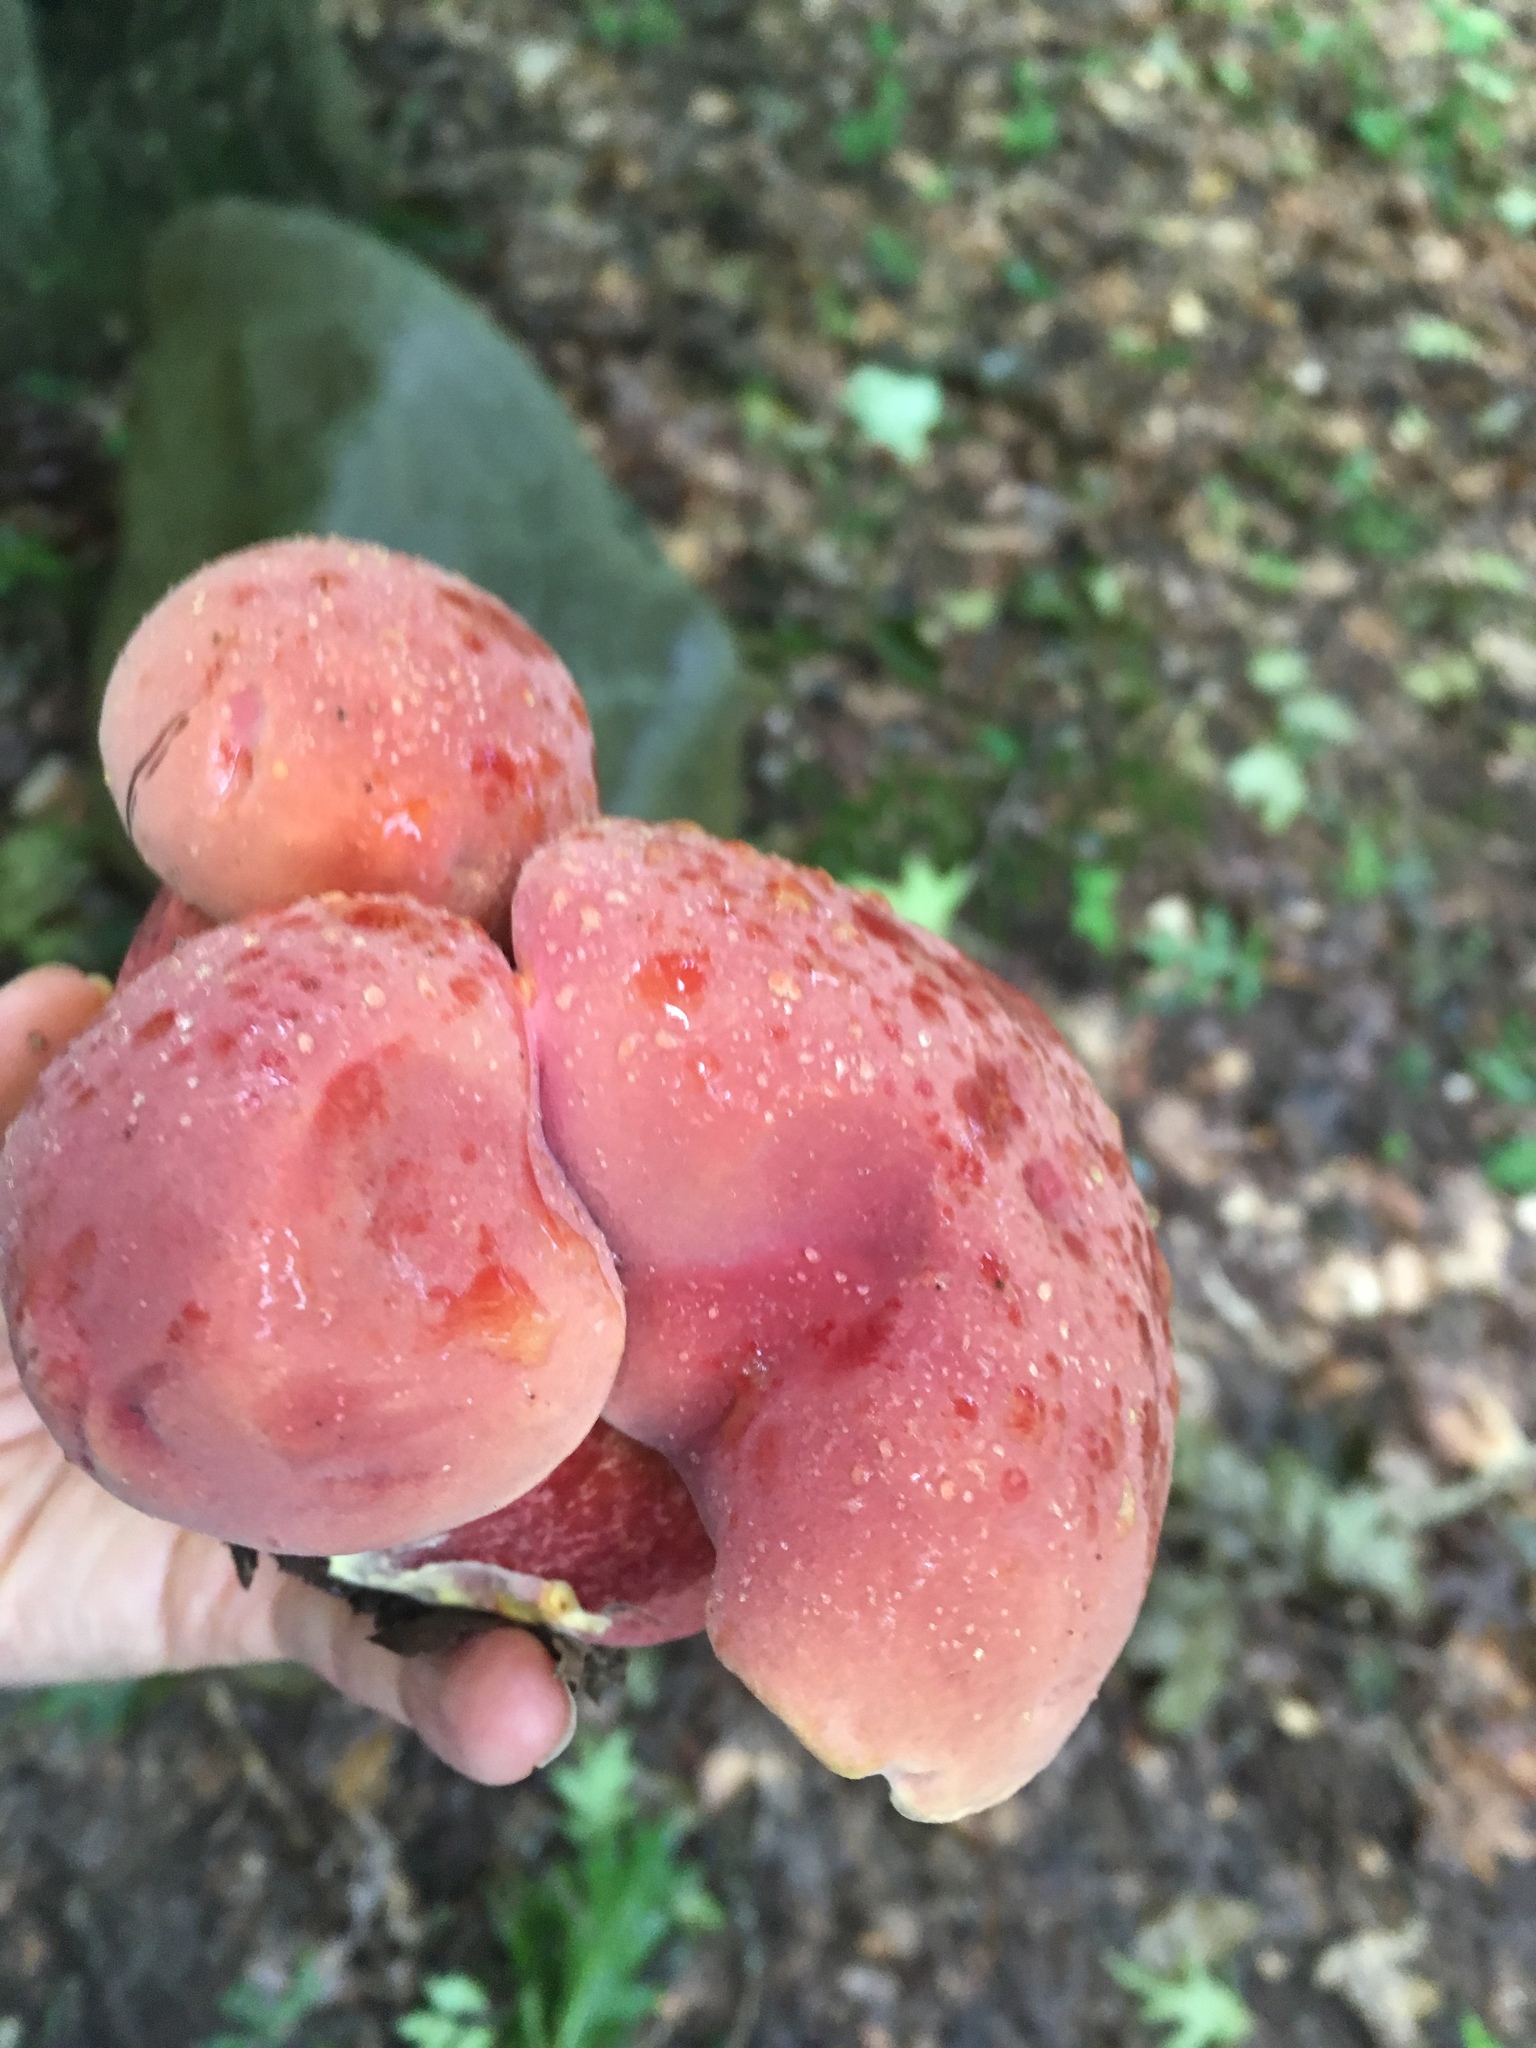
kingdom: Fungi
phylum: Basidiomycota
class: Agaricomycetes
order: Boletales
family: Boletaceae
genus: Boletus
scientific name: Boletus sensibilis
